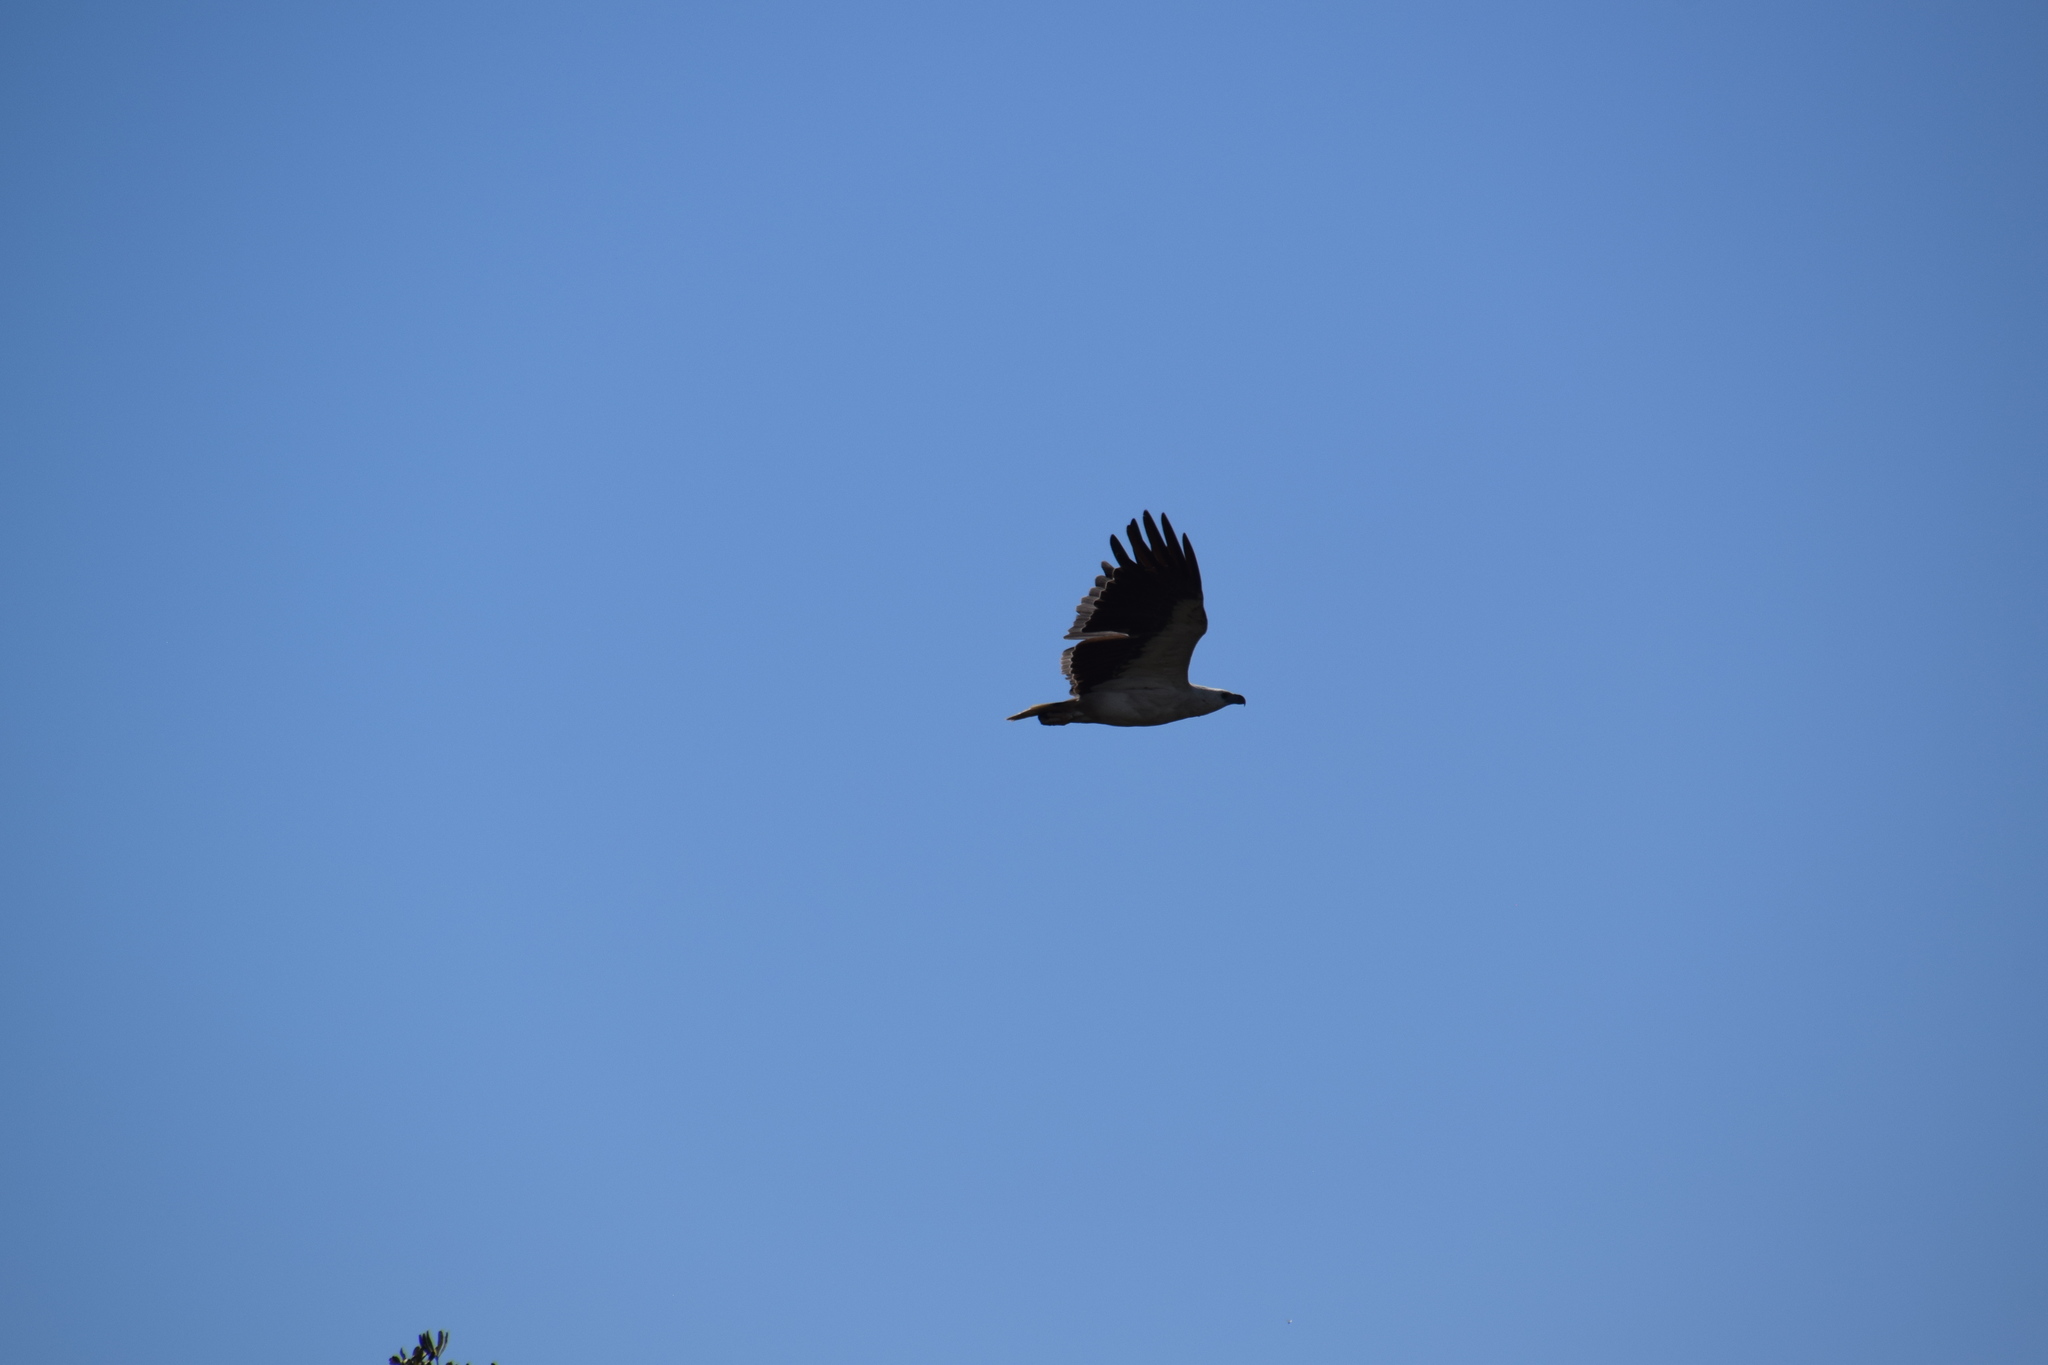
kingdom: Animalia
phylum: Chordata
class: Aves
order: Accipitriformes
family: Accipitridae
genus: Haliaeetus
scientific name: Haliaeetus leucogaster
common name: White-bellied sea eagle
